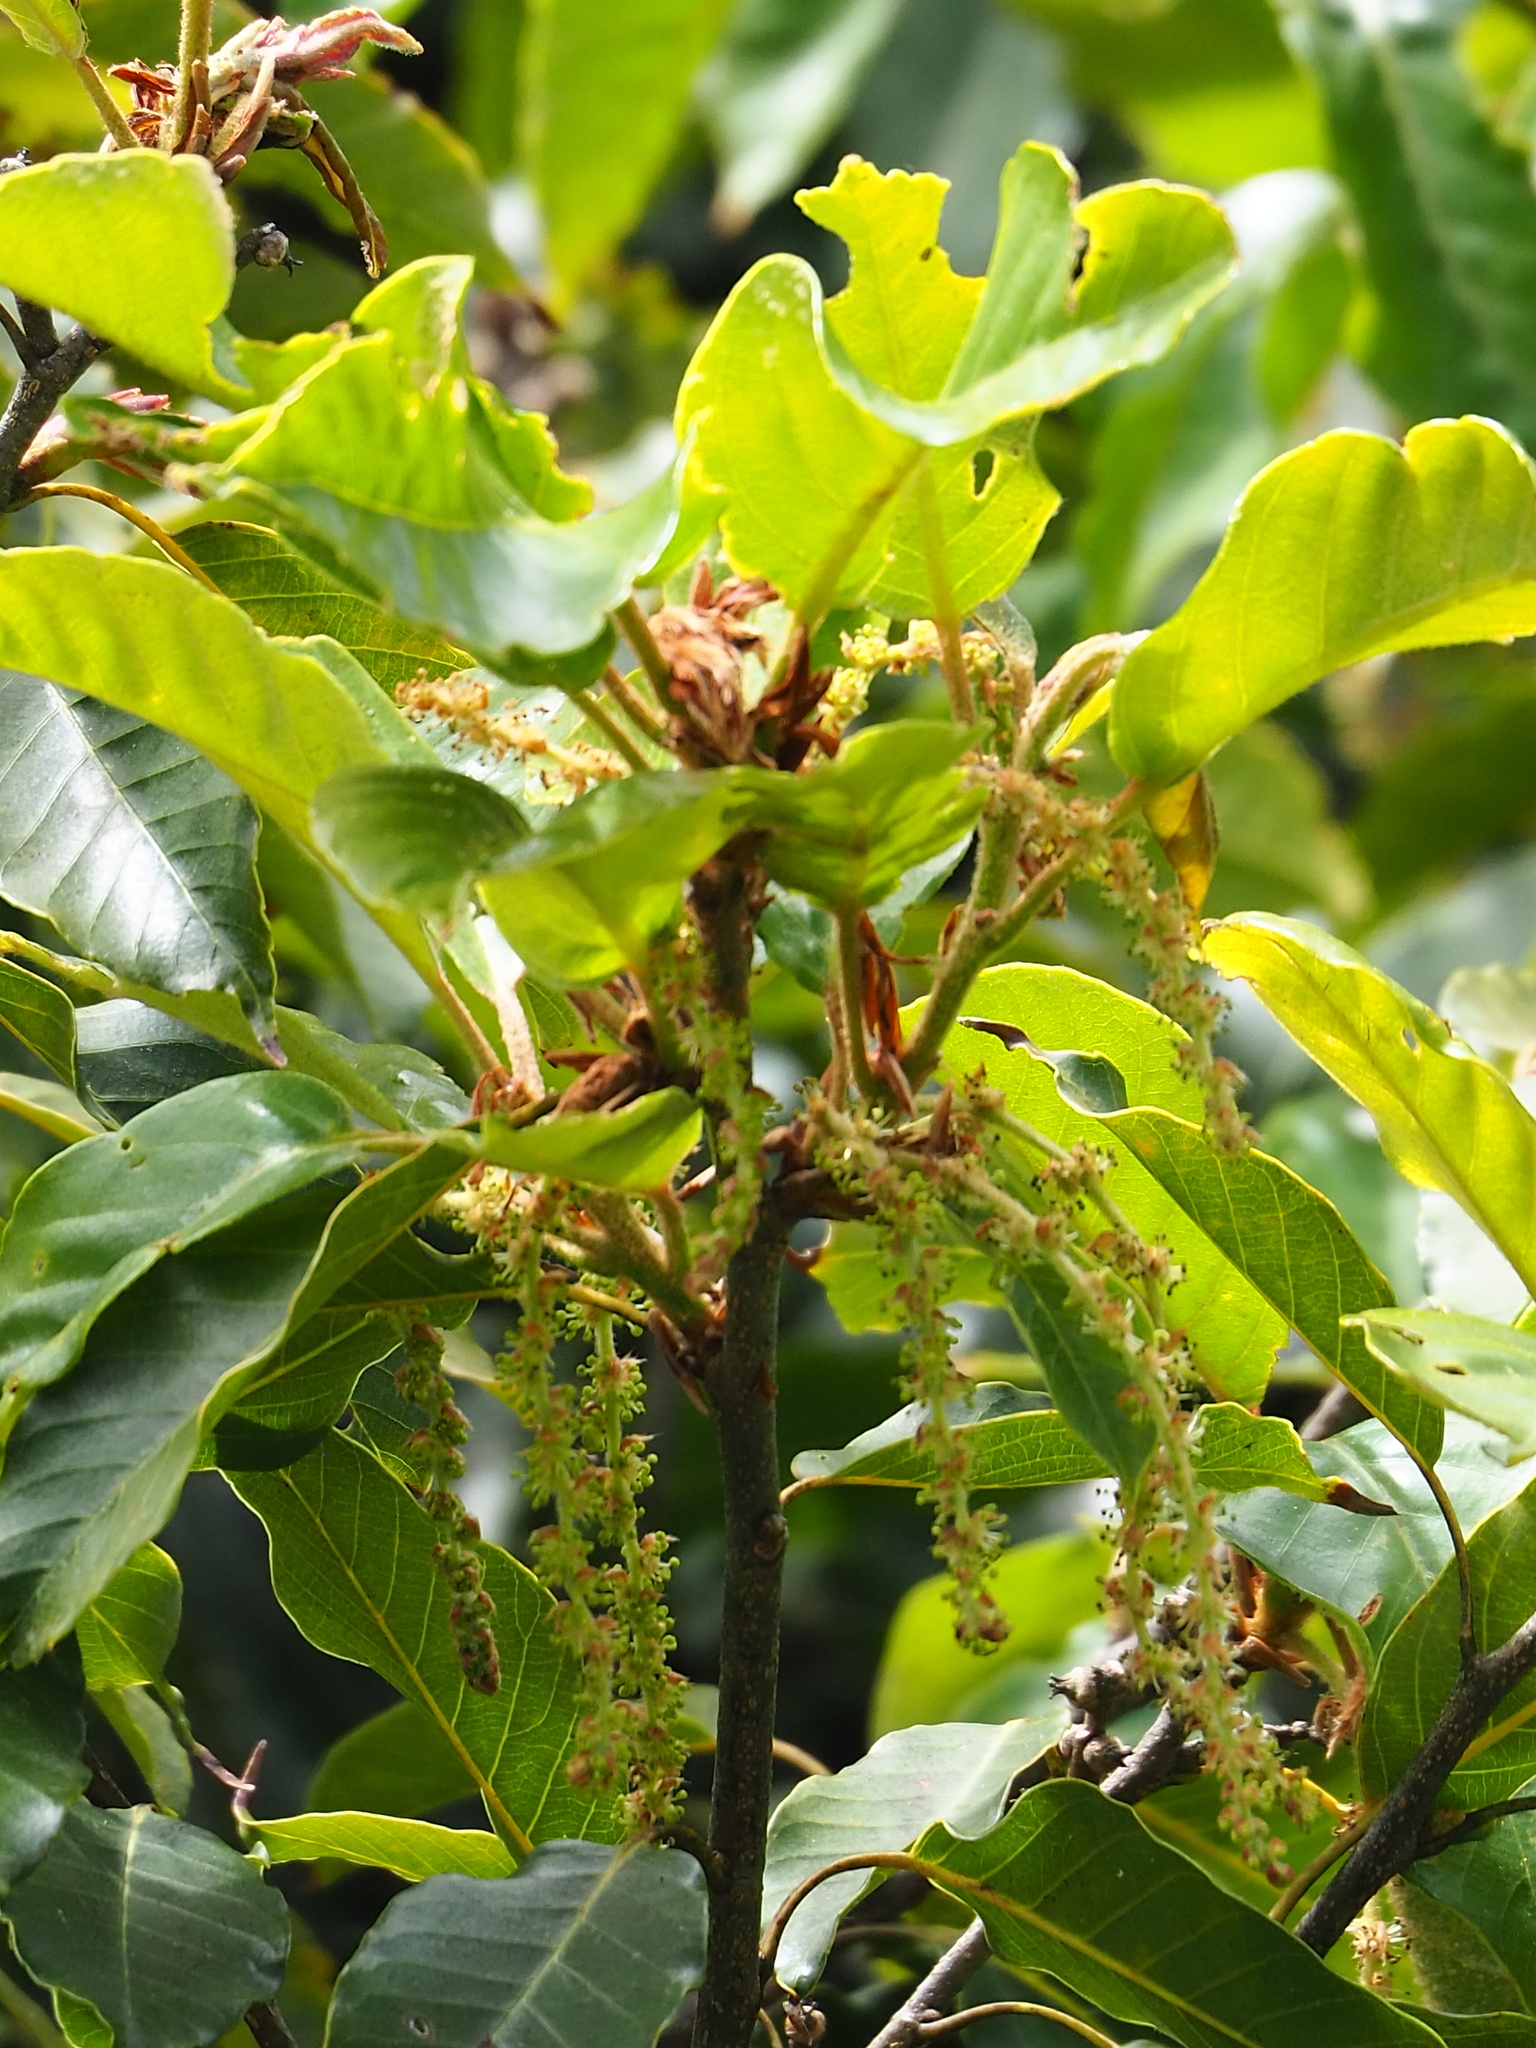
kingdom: Plantae
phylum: Tracheophyta
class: Magnoliopsida
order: Fagales
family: Fagaceae
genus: Quercus
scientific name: Quercus morii
